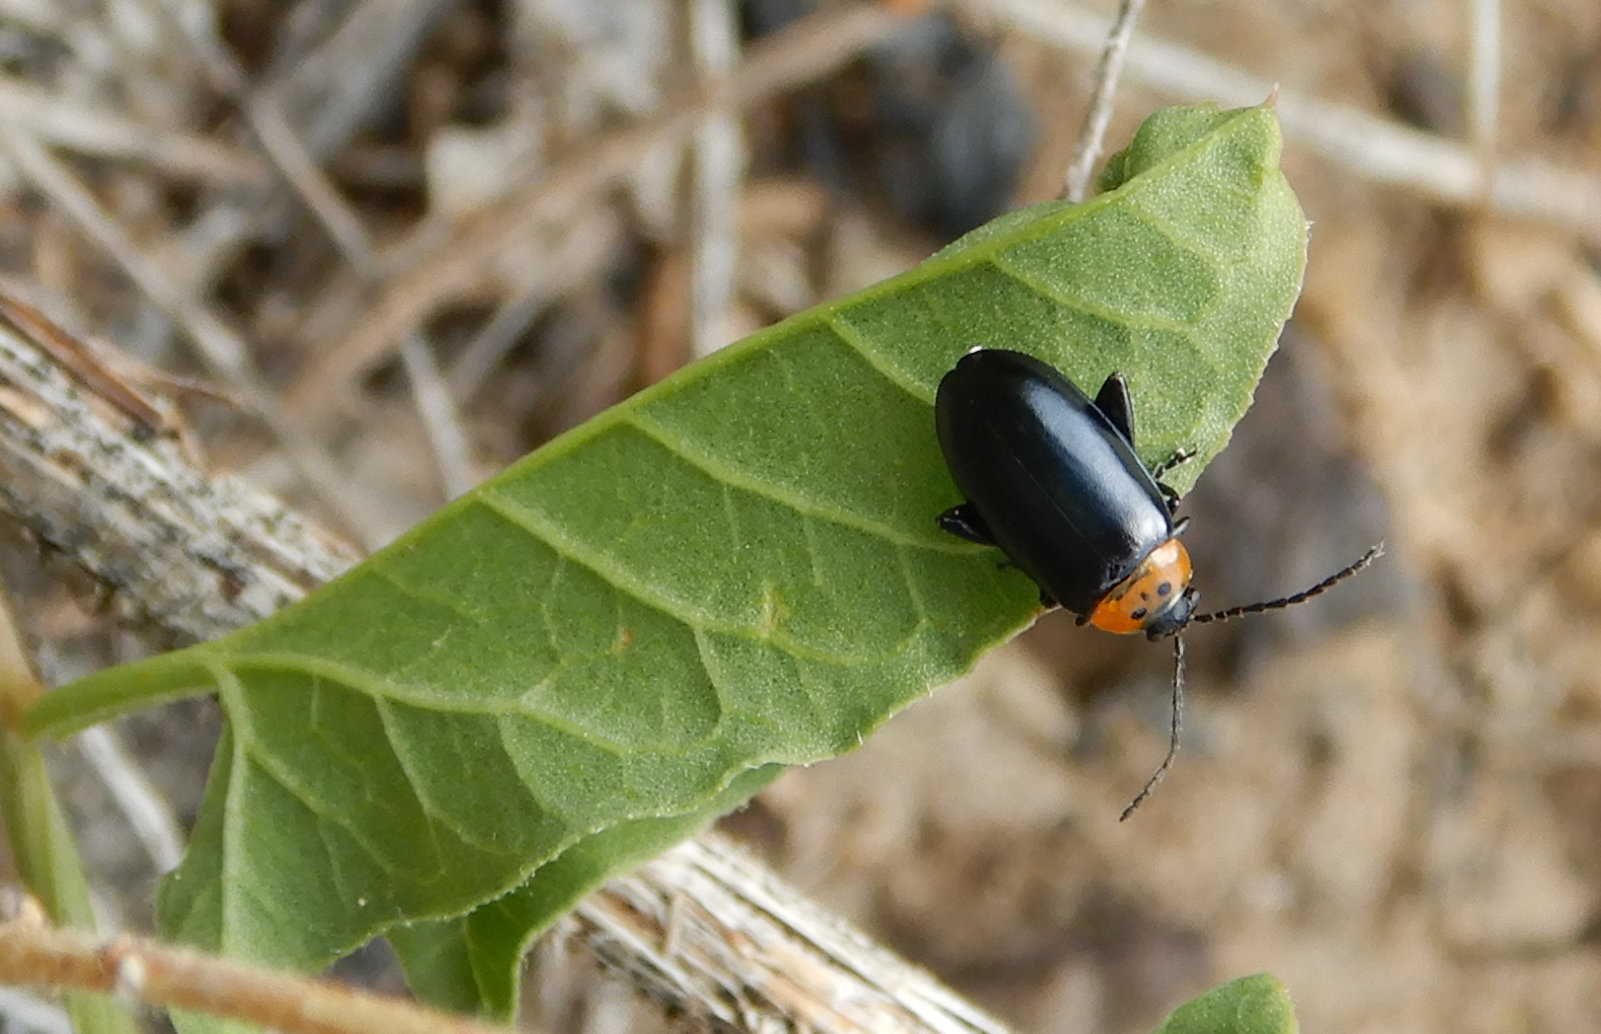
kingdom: Animalia
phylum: Arthropoda
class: Insecta
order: Coleoptera
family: Chrysomelidae
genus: Disonycha
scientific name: Disonycha triangularis
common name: Three-spotted flea beetle
